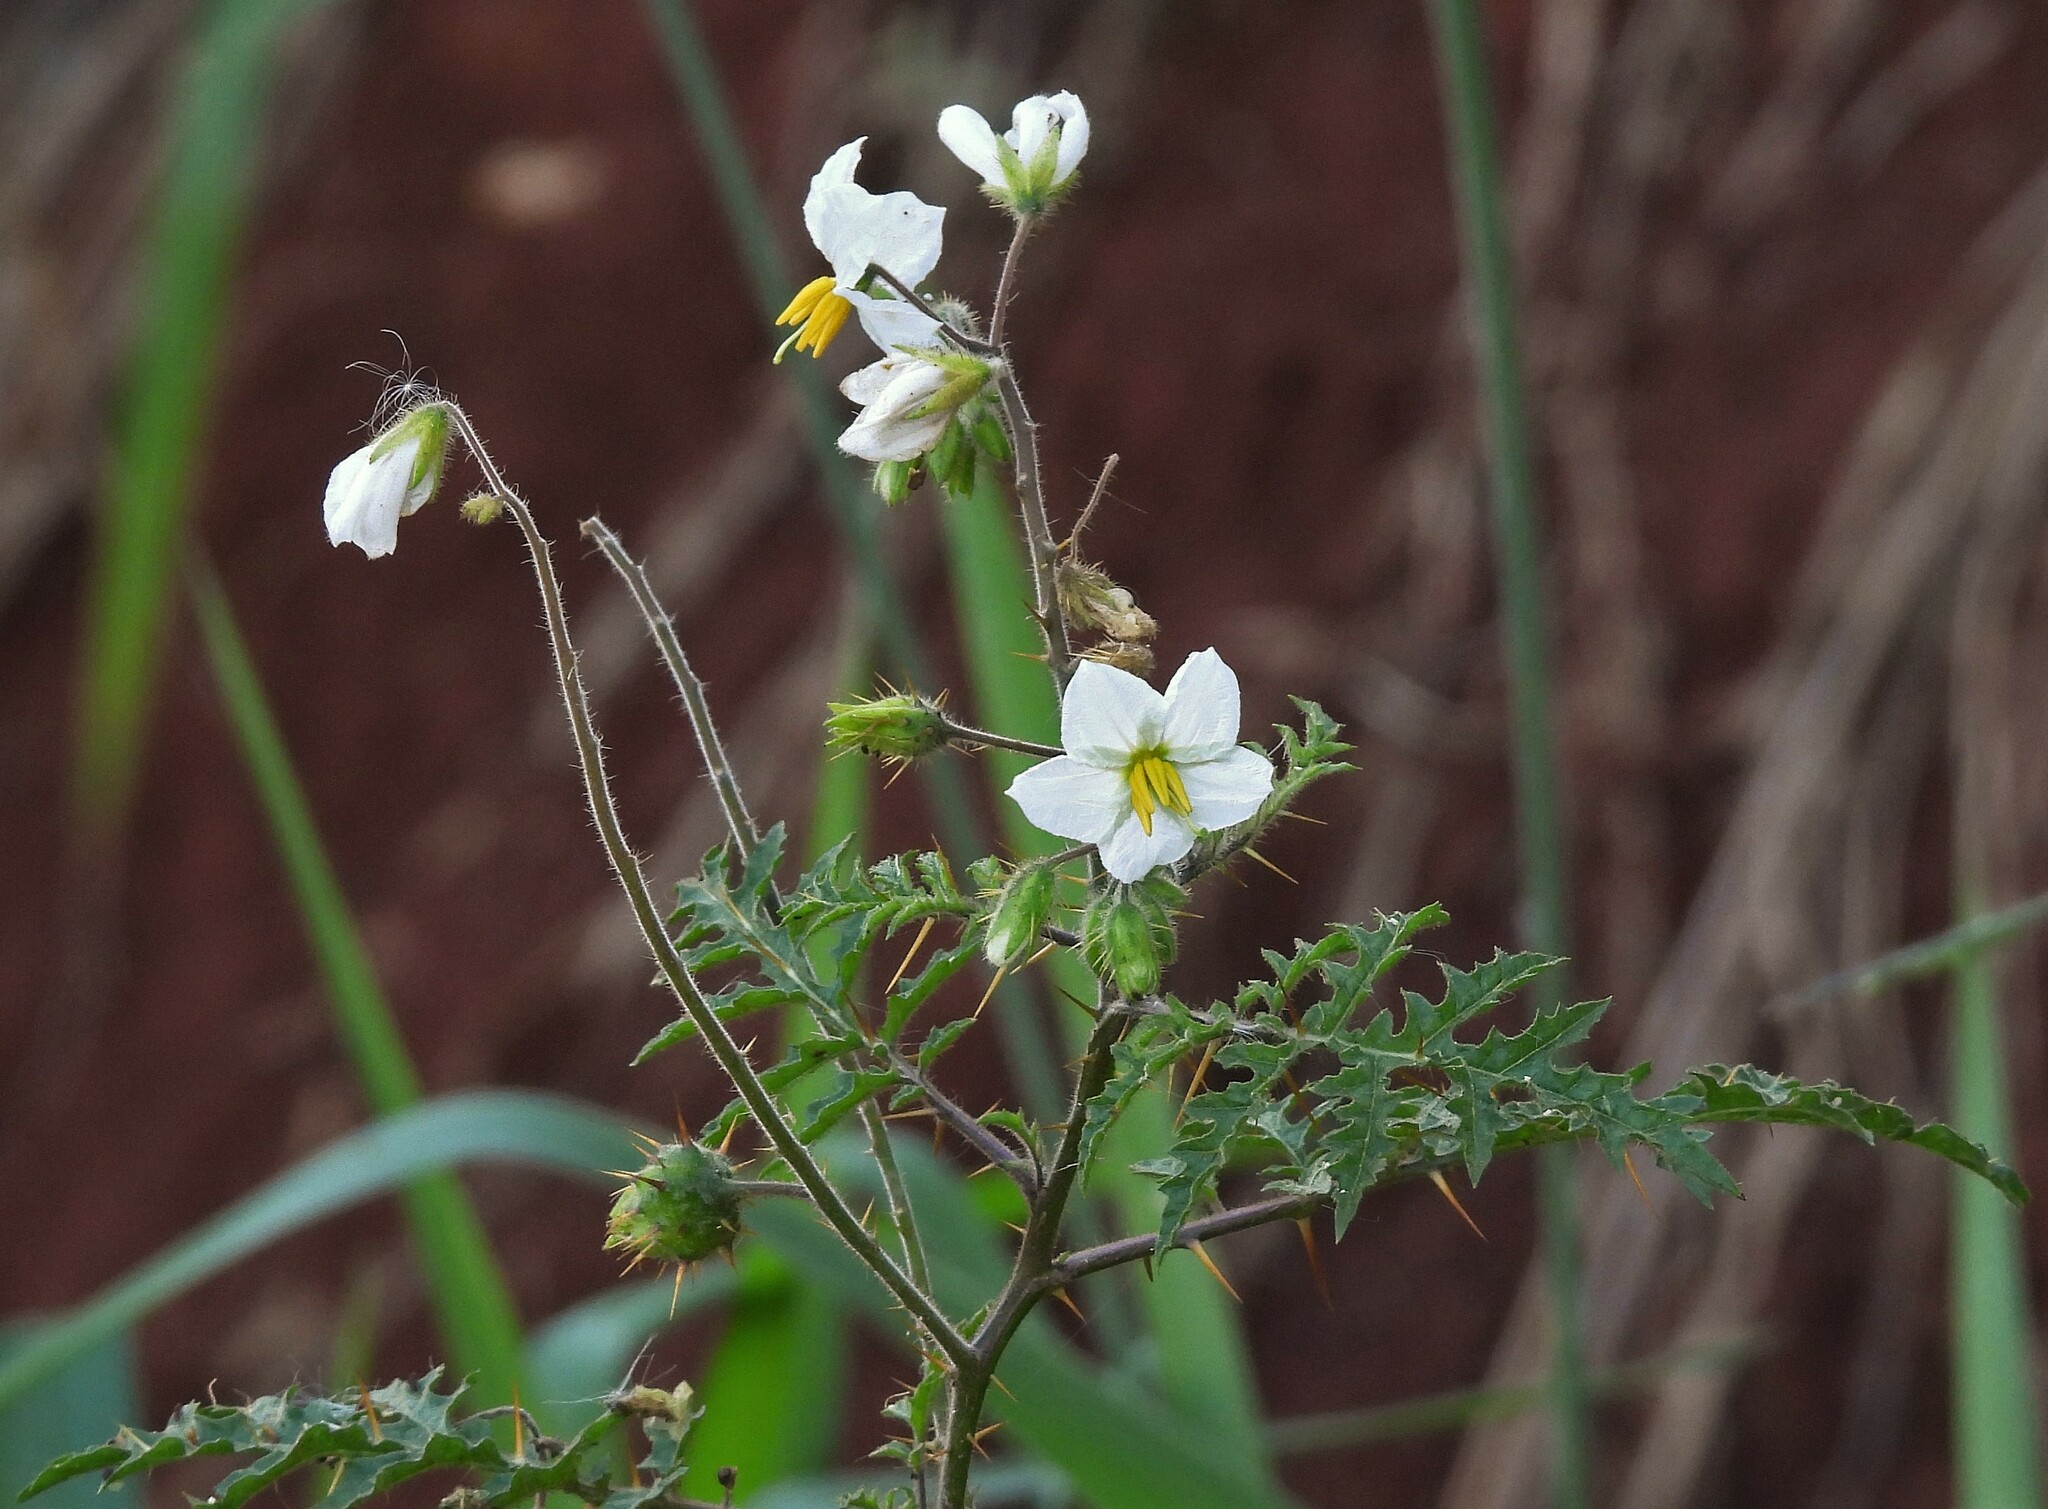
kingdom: Plantae
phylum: Tracheophyta
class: Magnoliopsida
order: Solanales
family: Solanaceae
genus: Solanum
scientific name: Solanum sisymbriifolium
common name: Red buffalo-bur
